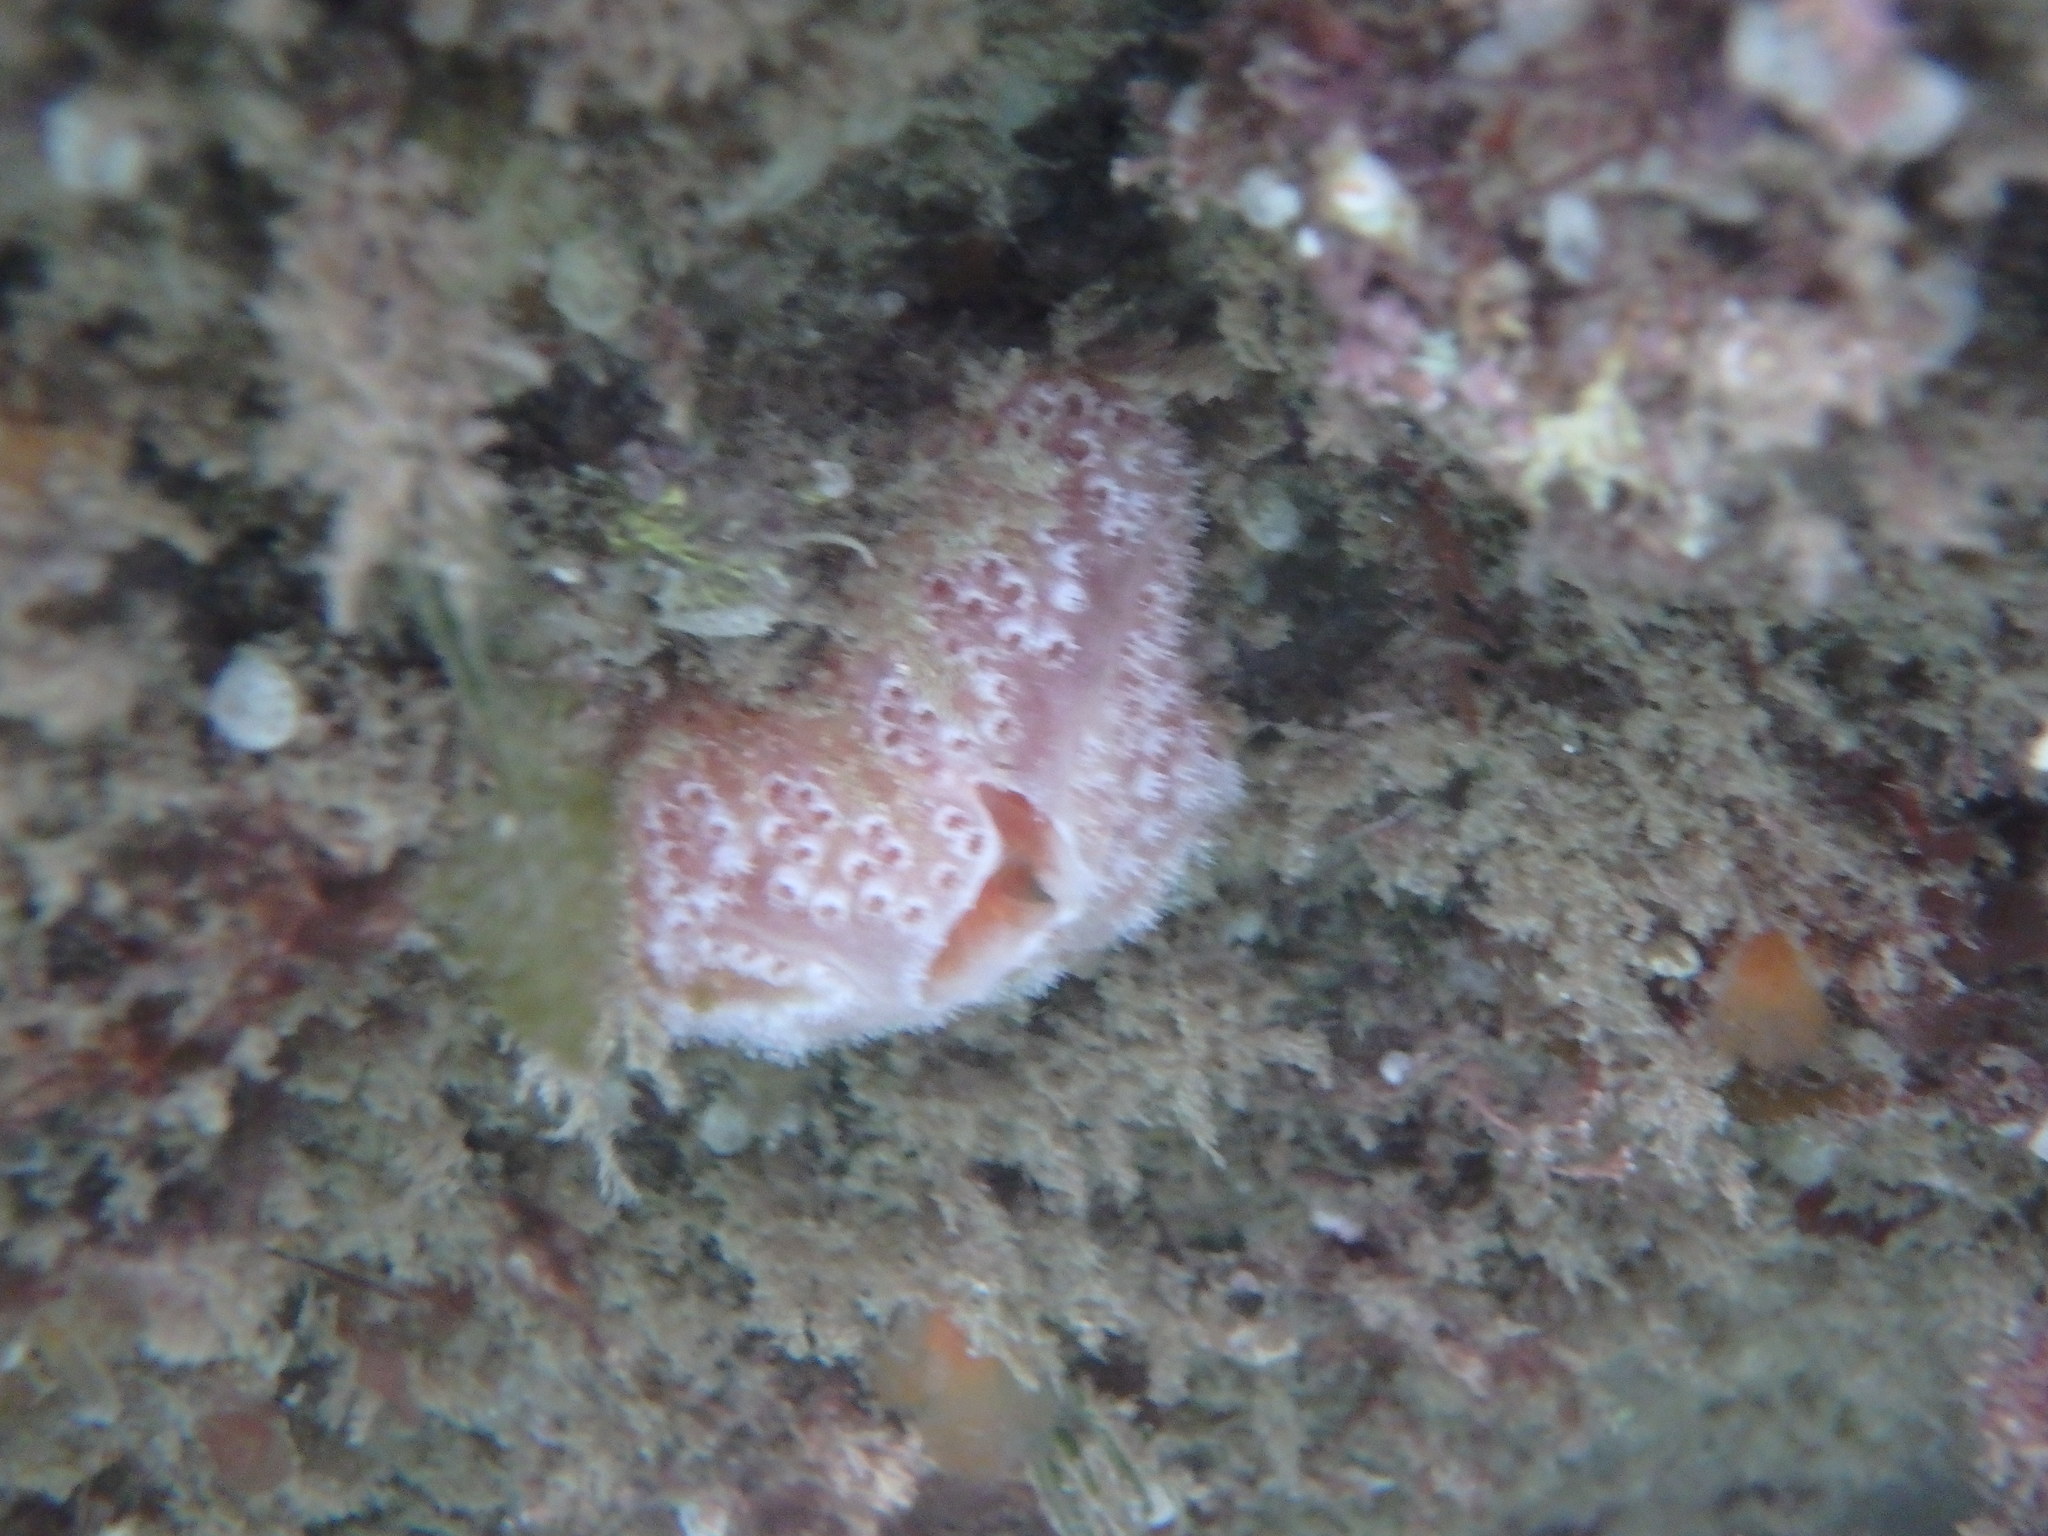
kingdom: Animalia
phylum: Chordata
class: Ascidiacea
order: Aplousobranchia
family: Polyclinidae
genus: Aplidium
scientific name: Aplidium elegans
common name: Sea-strawberry
